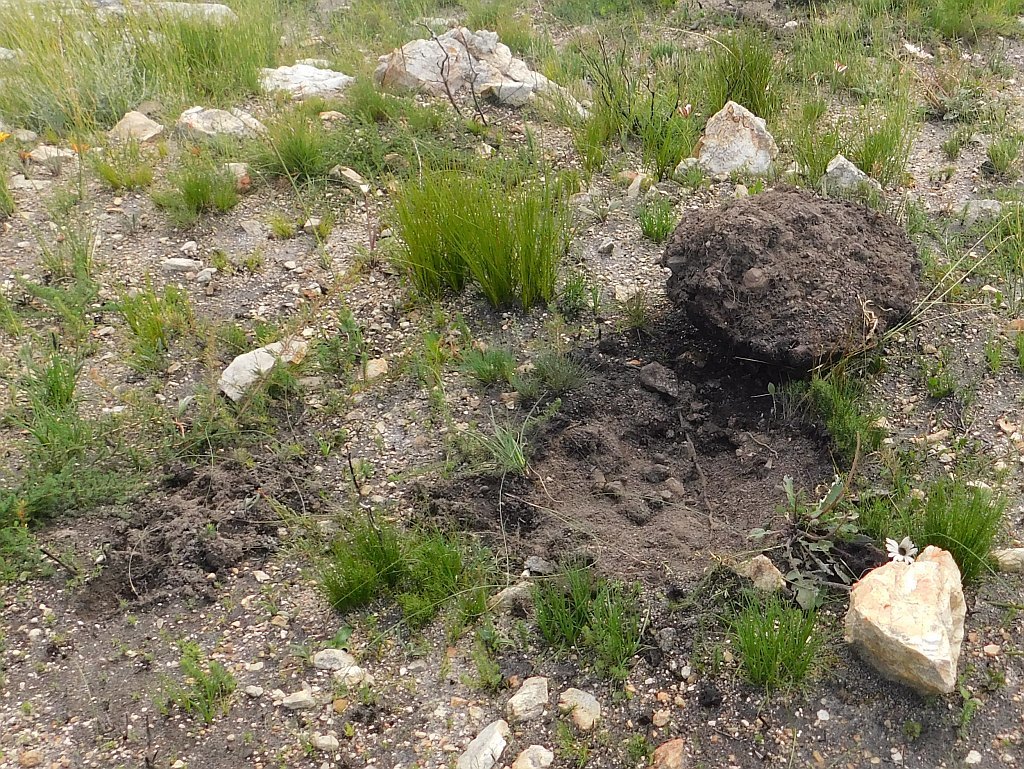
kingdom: Animalia
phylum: Arthropoda
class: Insecta
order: Hymenoptera
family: Formicidae
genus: Anoplolepis
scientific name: Anoplolepis steingroeveri
